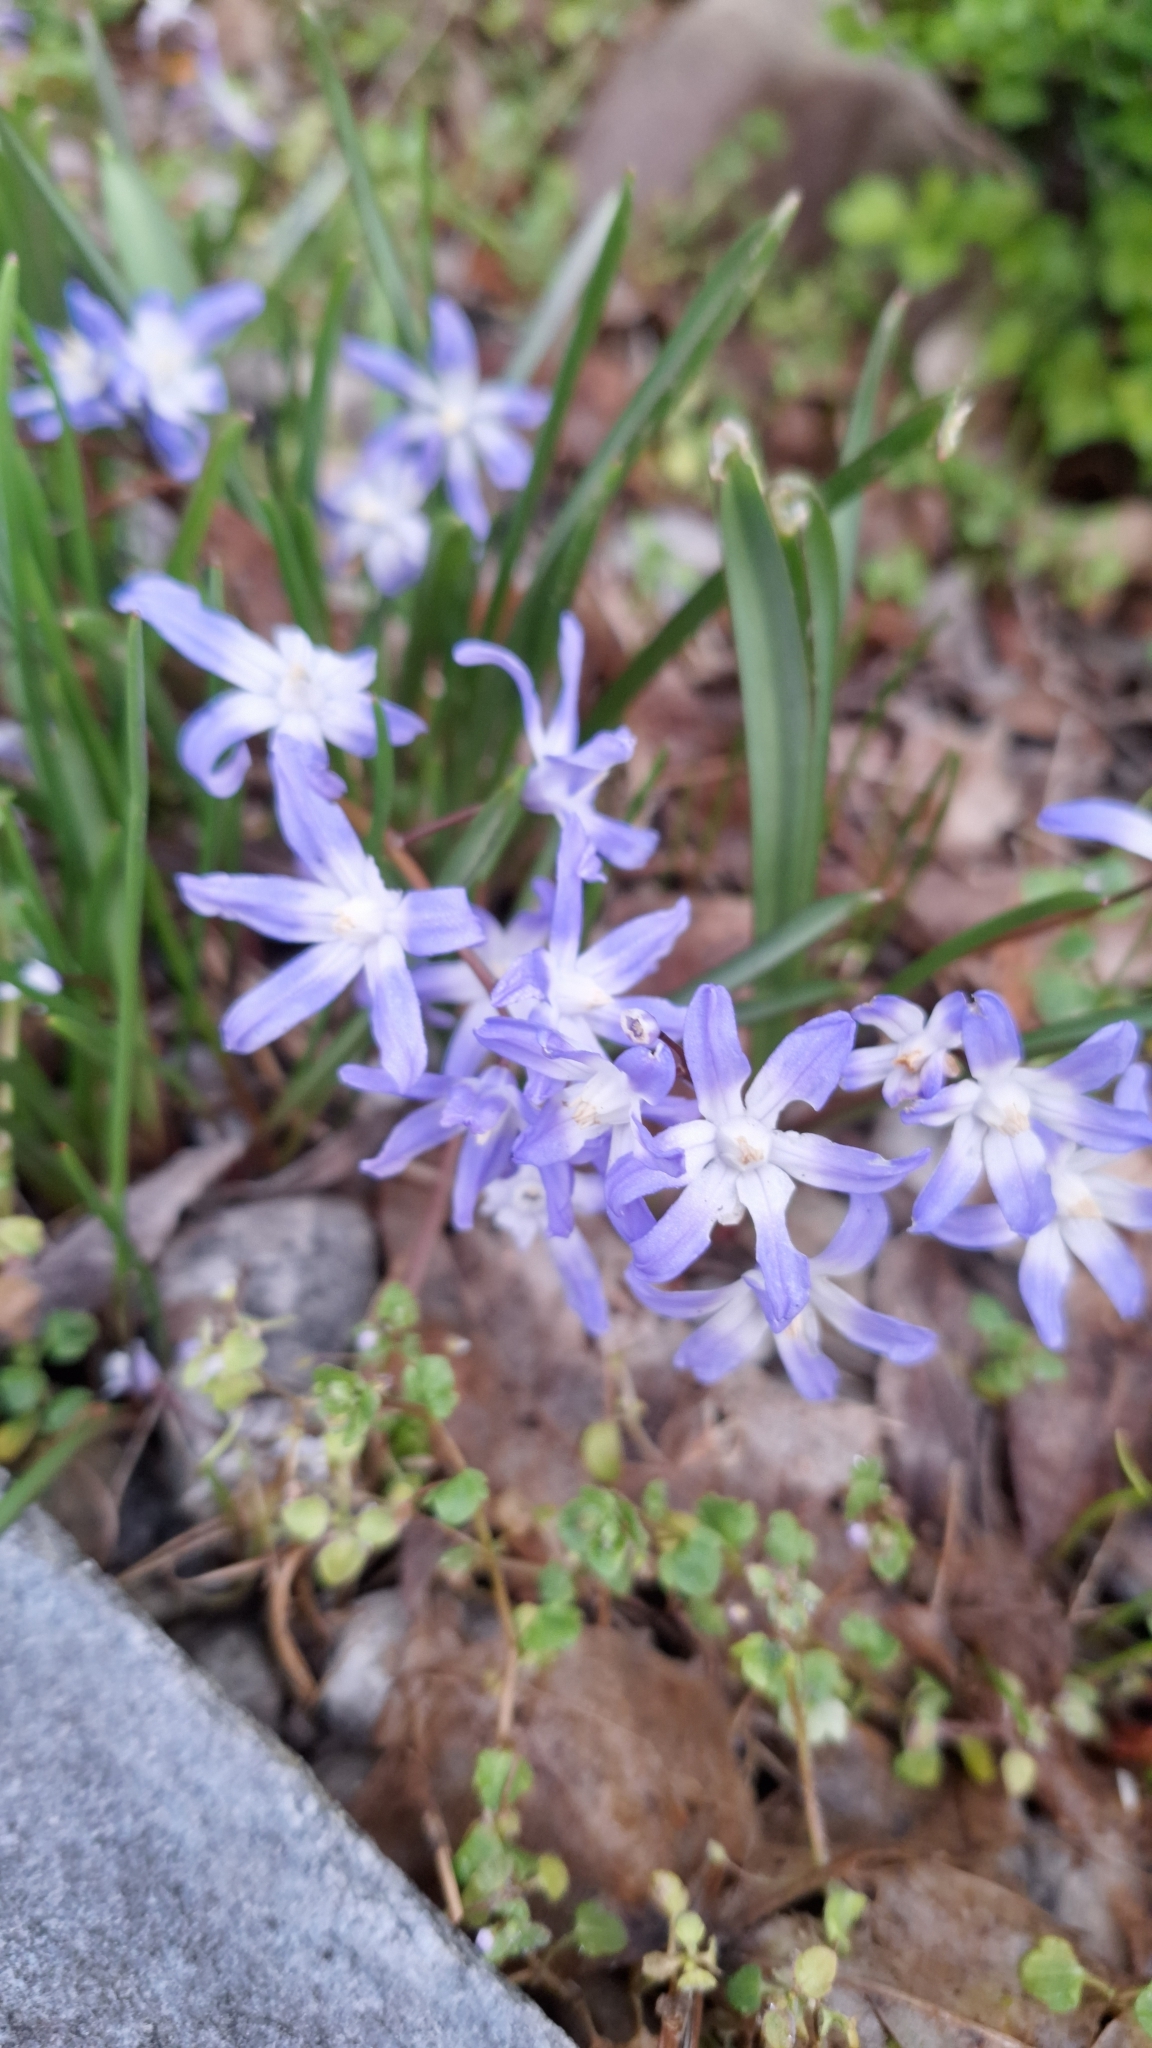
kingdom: Plantae
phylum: Tracheophyta
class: Liliopsida
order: Asparagales
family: Asparagaceae
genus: Scilla
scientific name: Scilla forbesii
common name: Glory-of-the-snow
